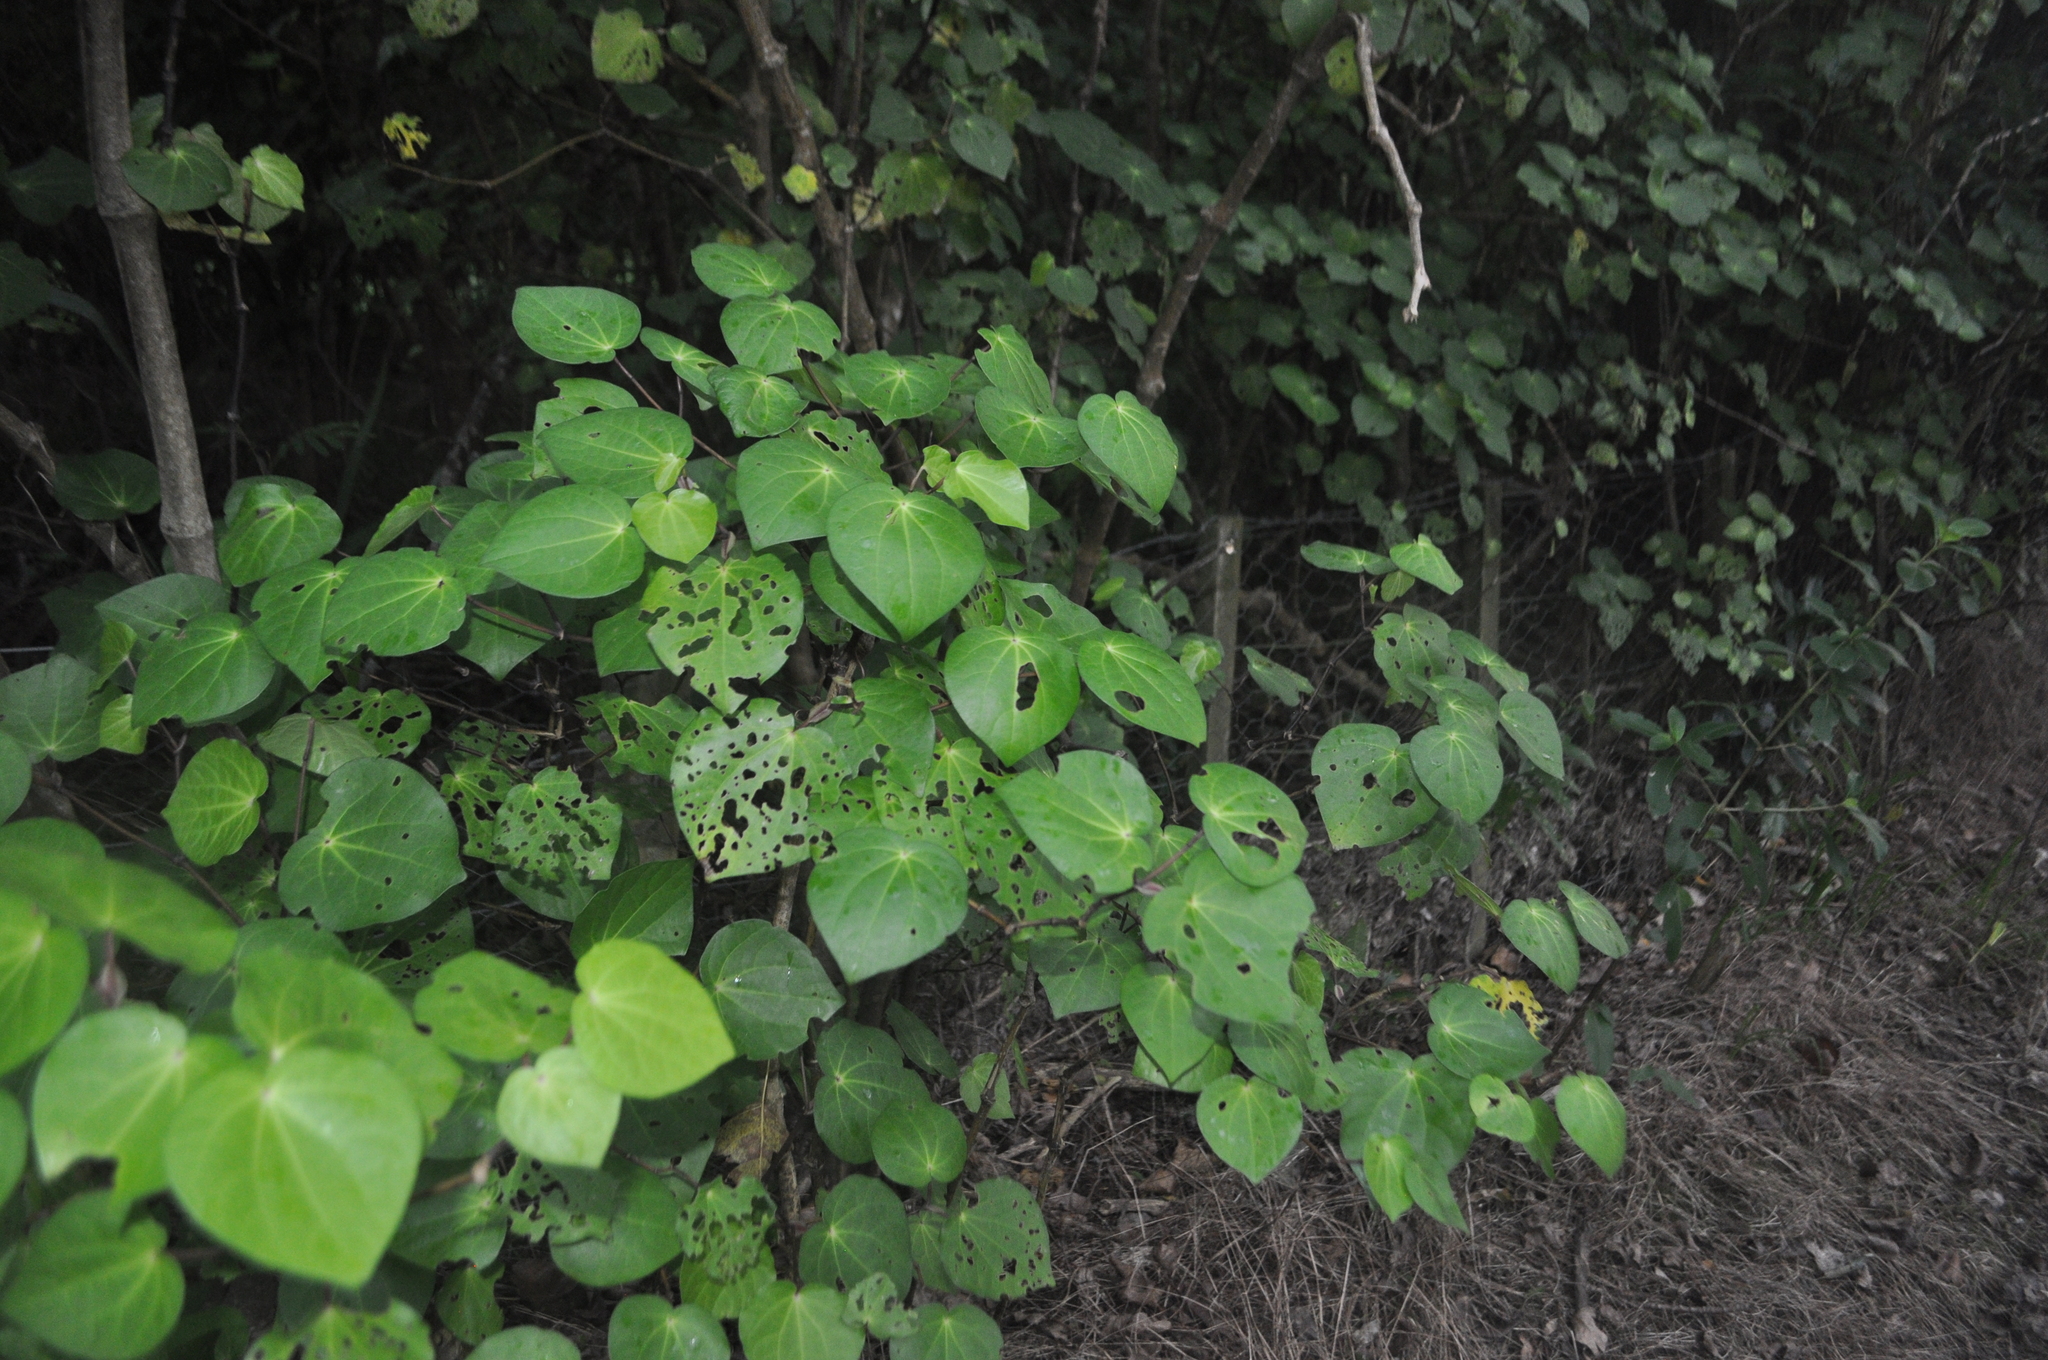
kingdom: Plantae
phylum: Tracheophyta
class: Magnoliopsida
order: Piperales
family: Piperaceae
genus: Macropiper
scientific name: Macropiper excelsum
